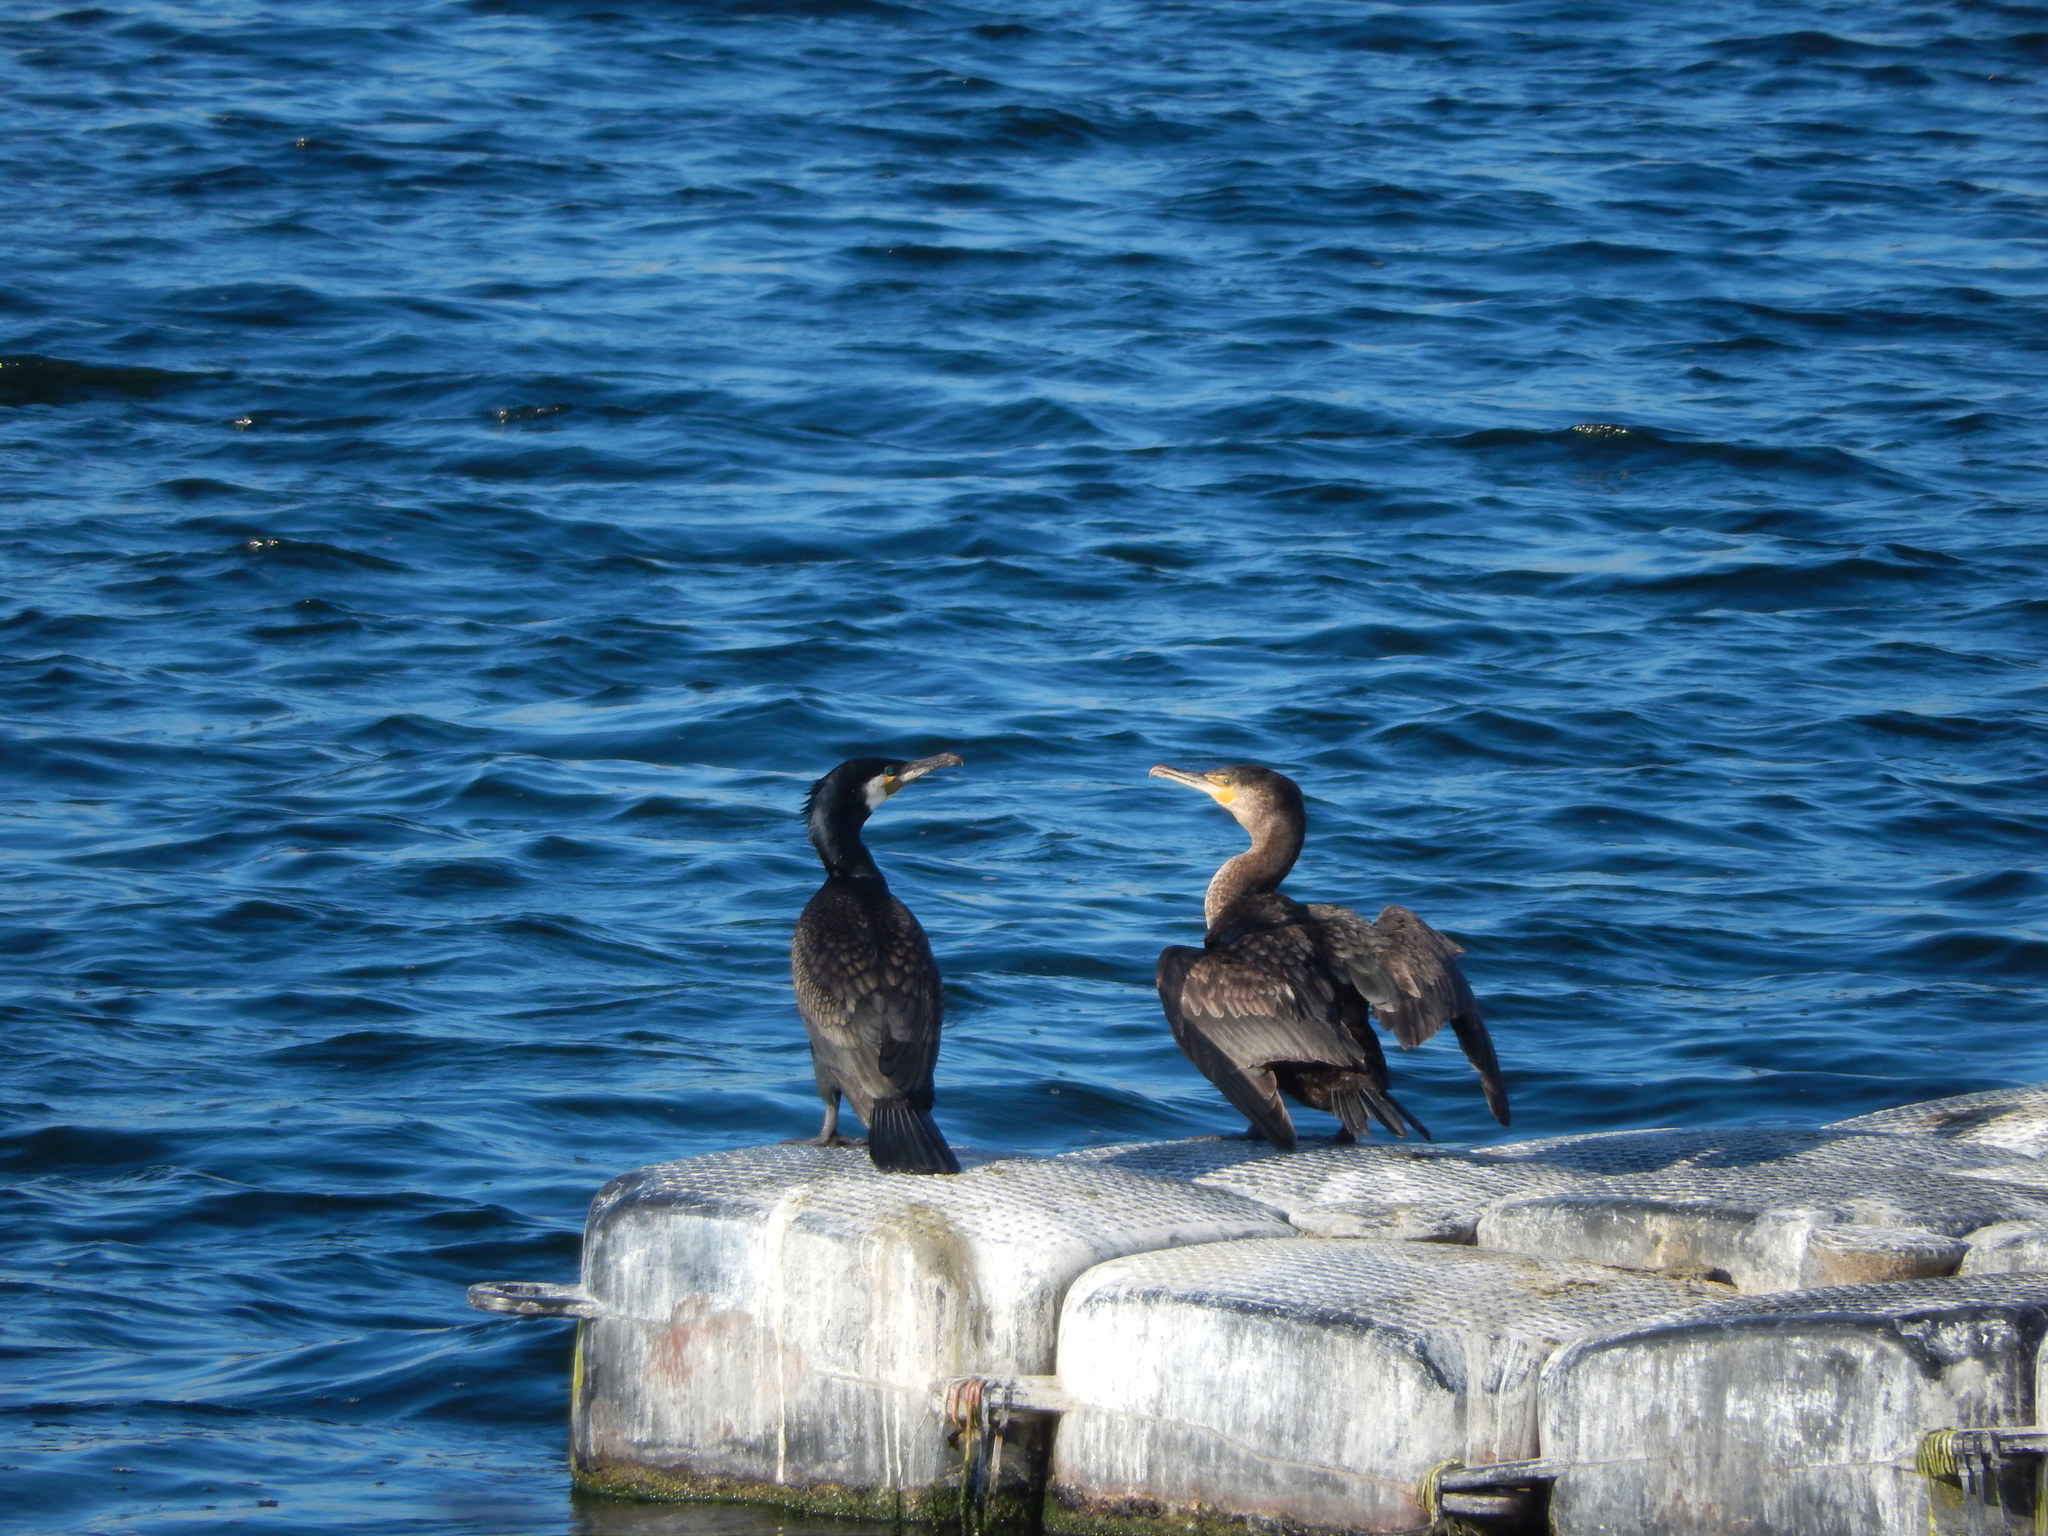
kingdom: Animalia
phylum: Chordata
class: Aves
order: Suliformes
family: Phalacrocoracidae
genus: Phalacrocorax
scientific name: Phalacrocorax carbo
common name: Great cormorant
